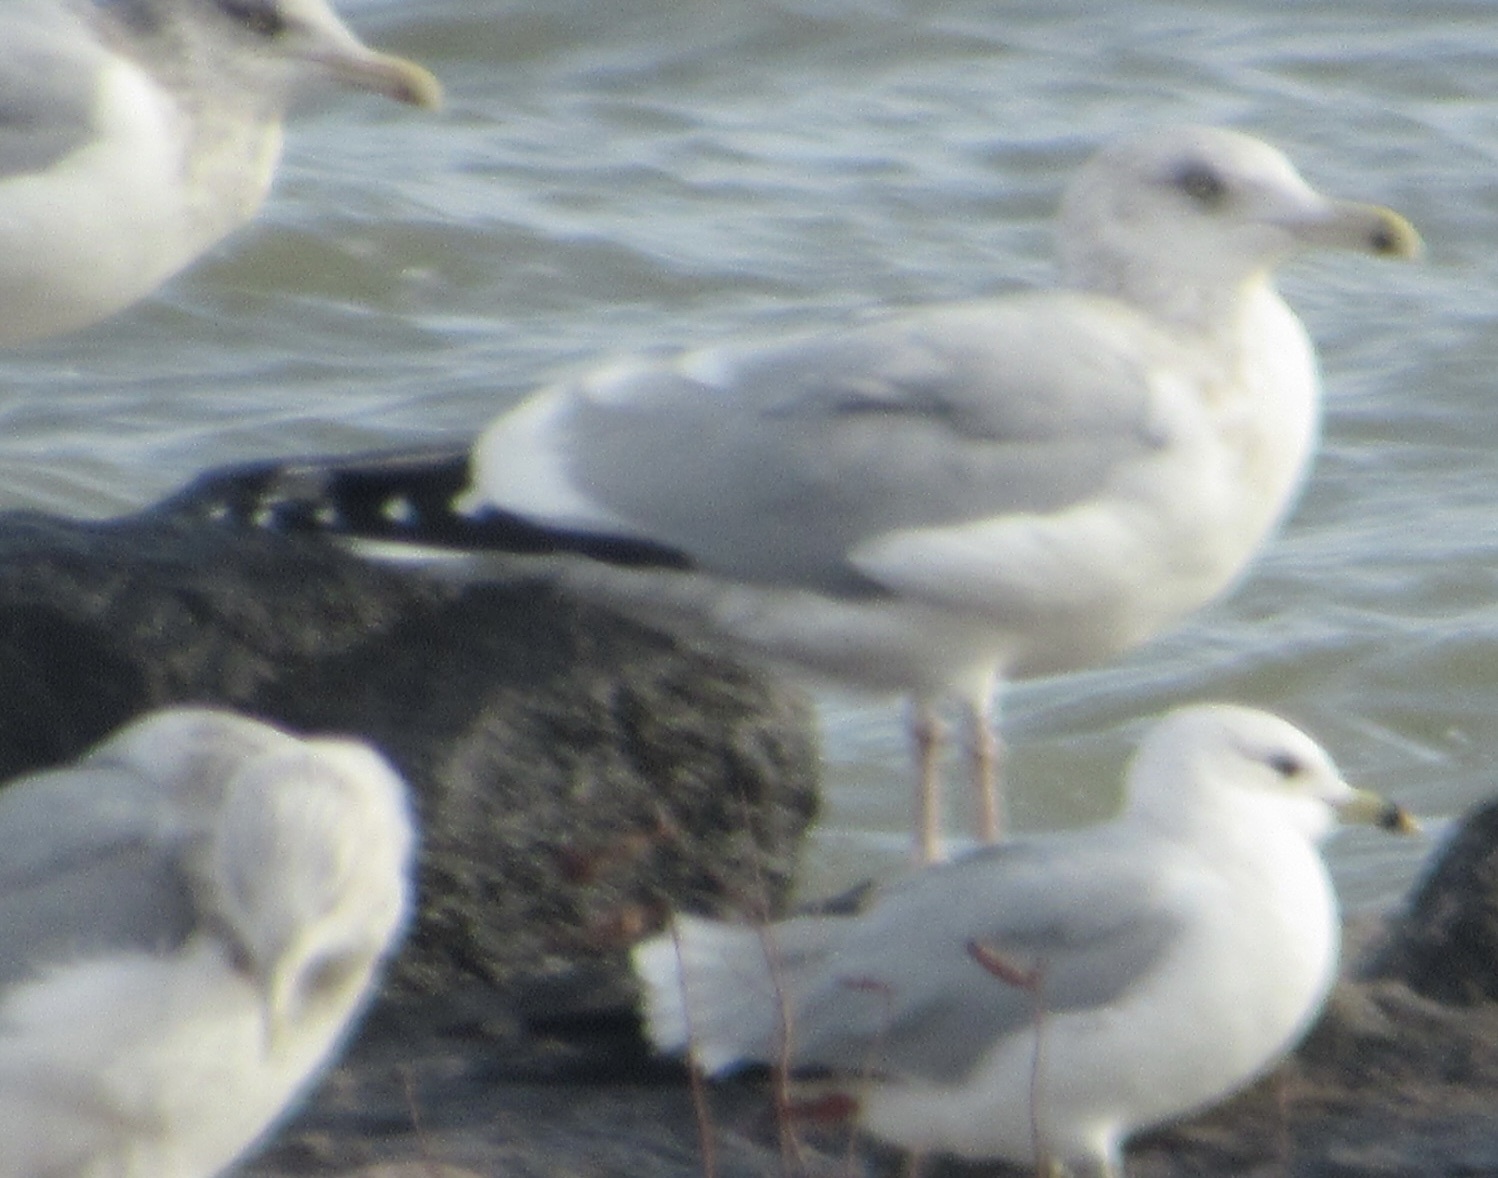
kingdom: Animalia
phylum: Chordata
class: Aves
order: Charadriiformes
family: Laridae
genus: Larus
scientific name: Larus argentatus
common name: Herring gull
